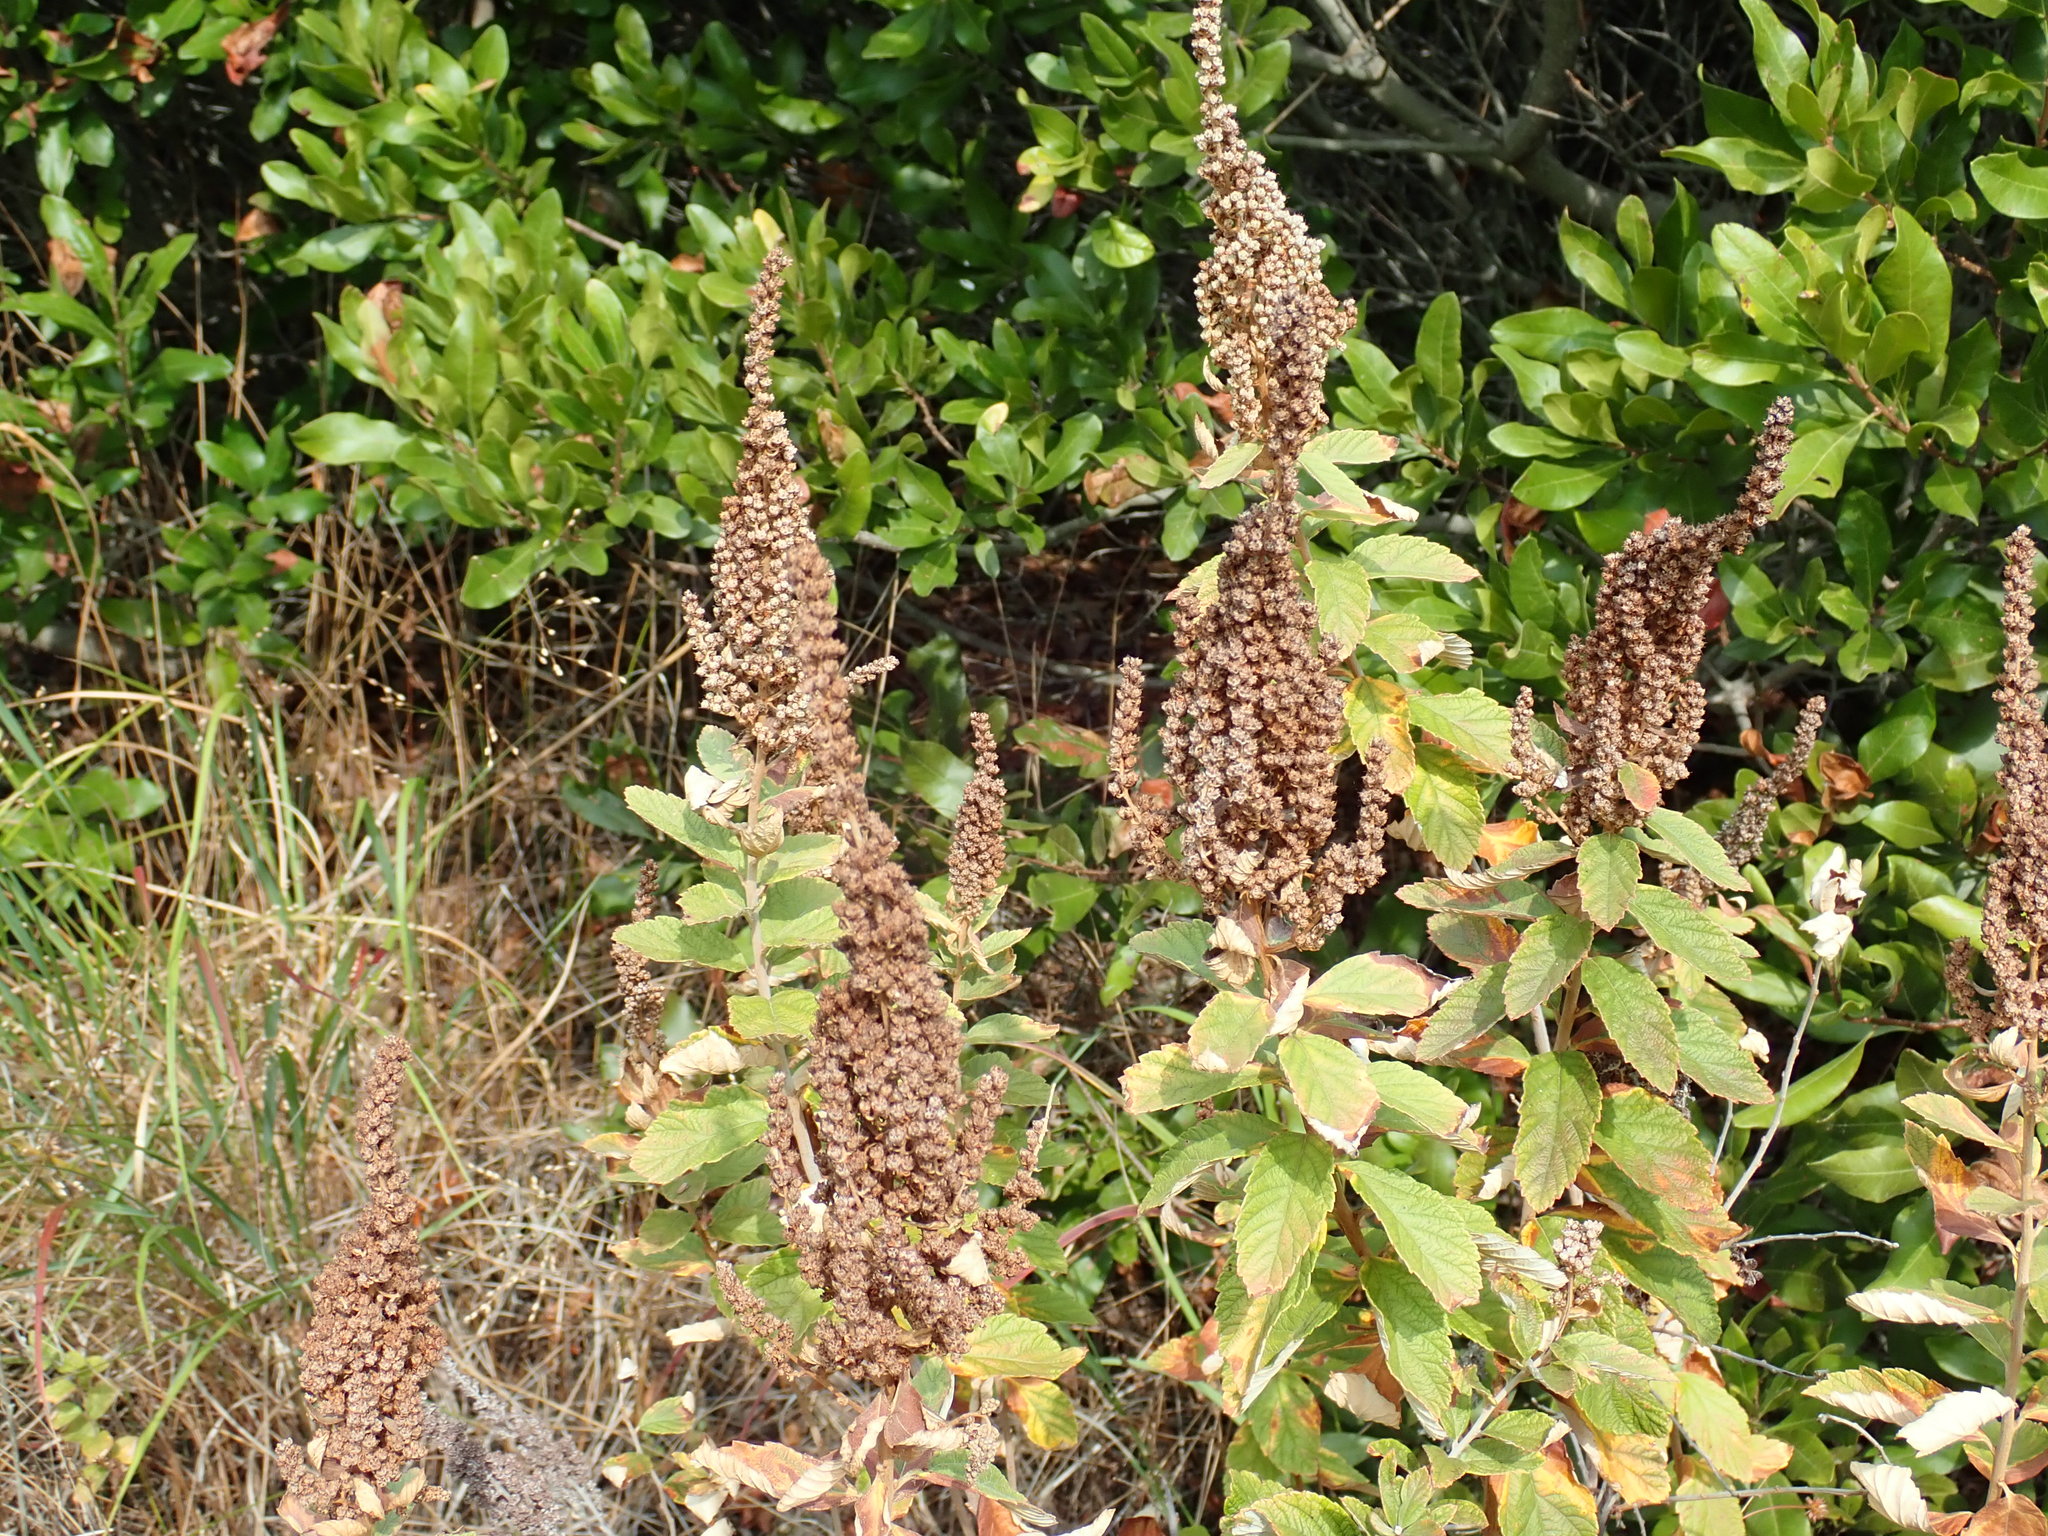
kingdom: Plantae
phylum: Tracheophyta
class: Magnoliopsida
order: Rosales
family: Rosaceae
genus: Spiraea
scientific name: Spiraea tomentosa
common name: Hardhack
